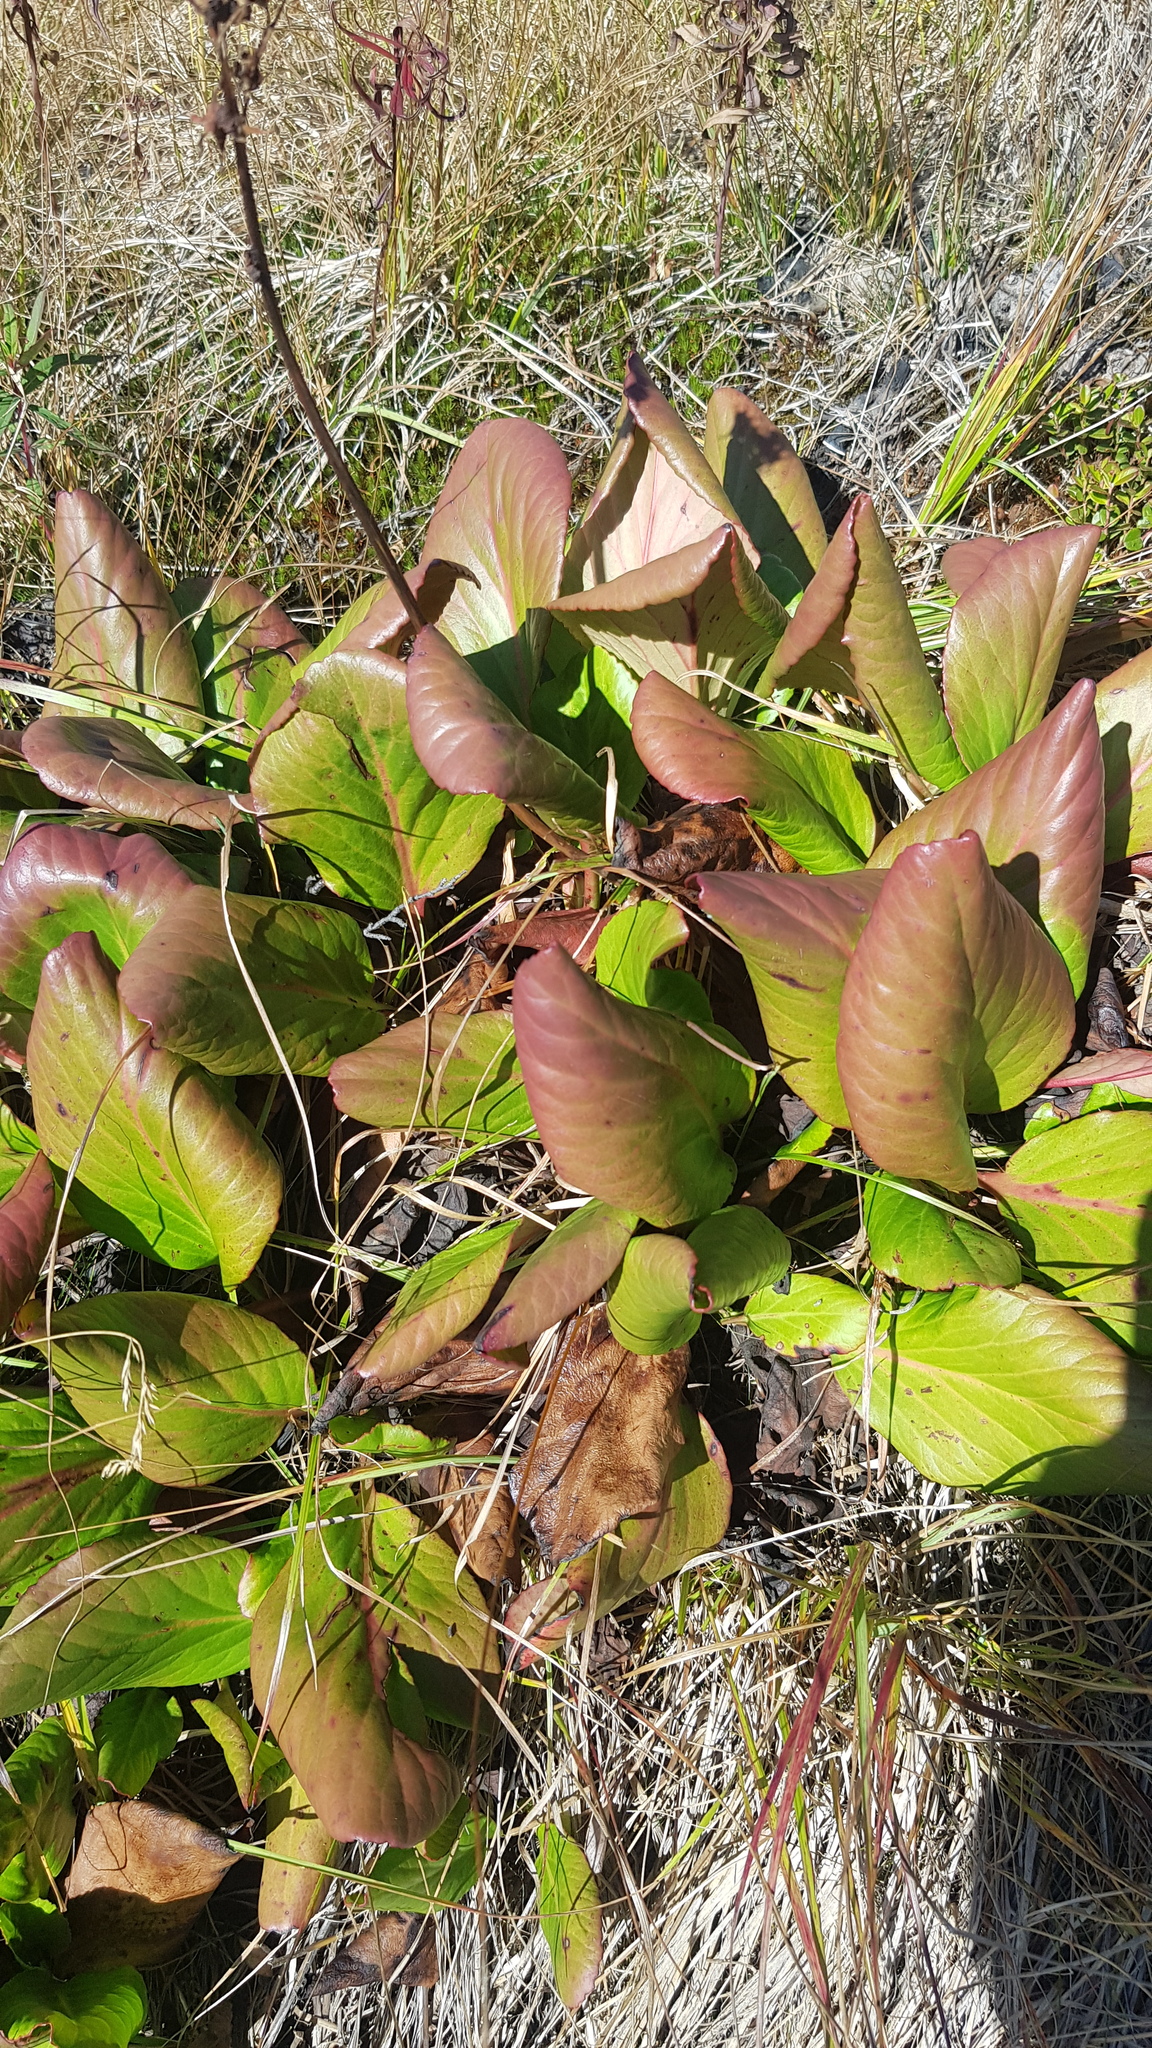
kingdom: Plantae
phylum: Tracheophyta
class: Magnoliopsida
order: Saxifragales
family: Saxifragaceae
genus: Bergenia
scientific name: Bergenia crassifolia
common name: Elephant-ears
